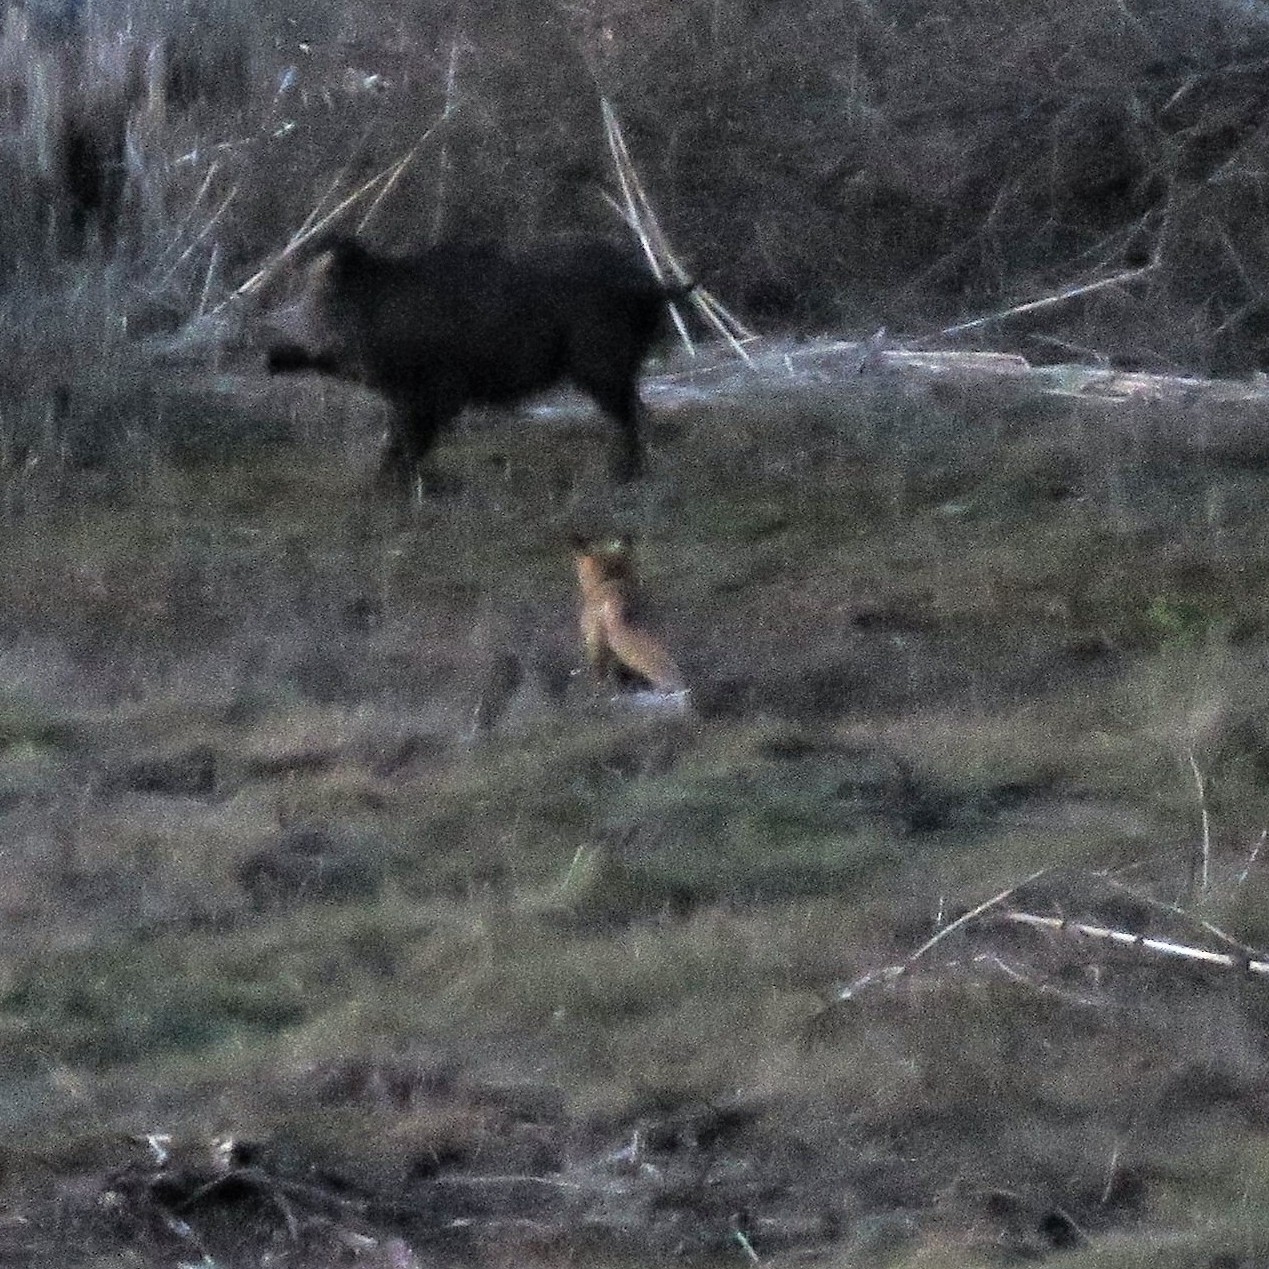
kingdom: Animalia
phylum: Chordata
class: Mammalia
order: Carnivora
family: Canidae
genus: Vulpes
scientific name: Vulpes vulpes
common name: Red fox
